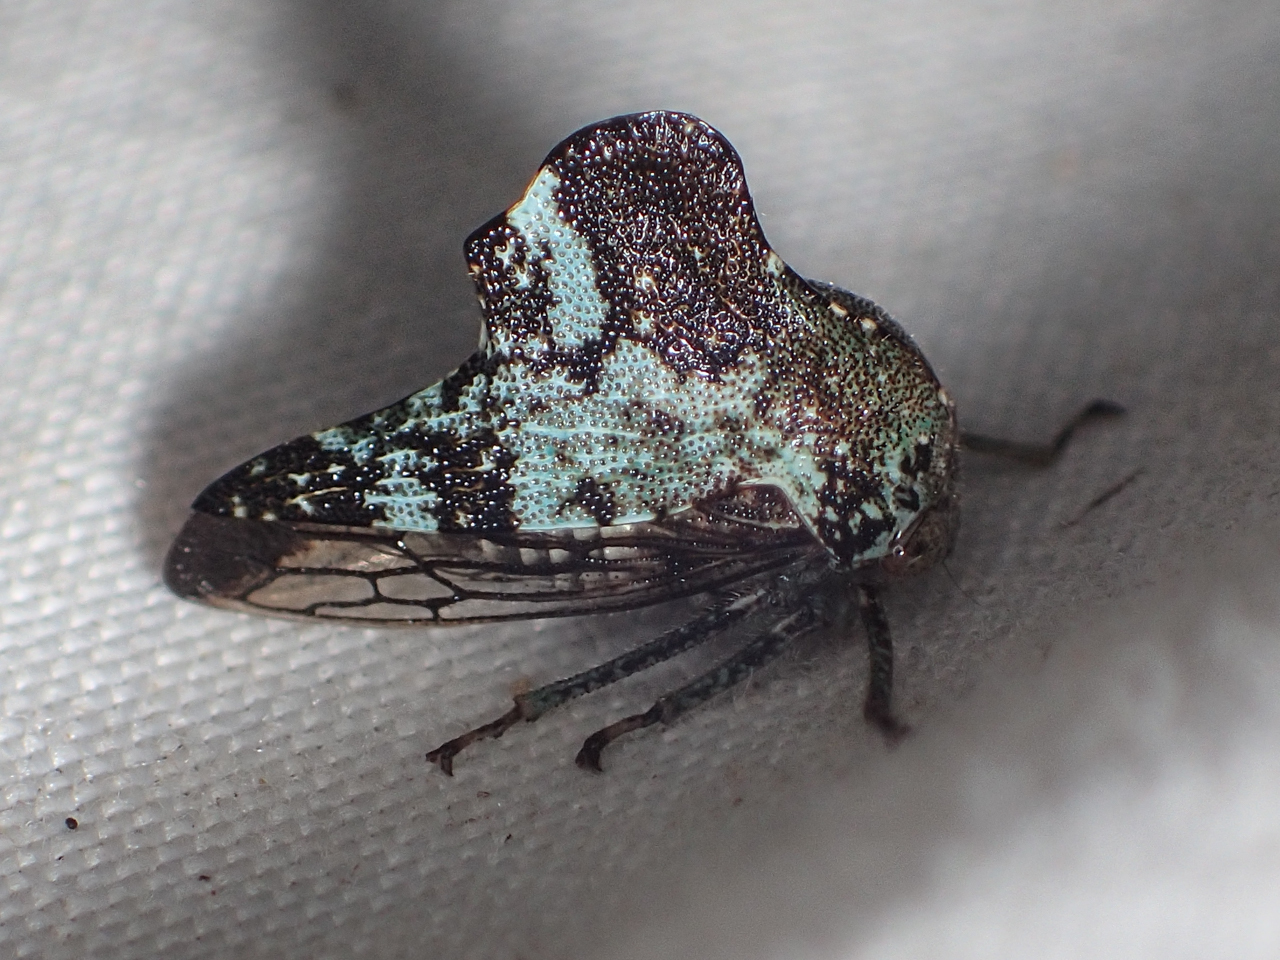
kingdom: Animalia
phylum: Arthropoda
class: Insecta
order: Hemiptera
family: Membracidae
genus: Telamona
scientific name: Telamona concava
